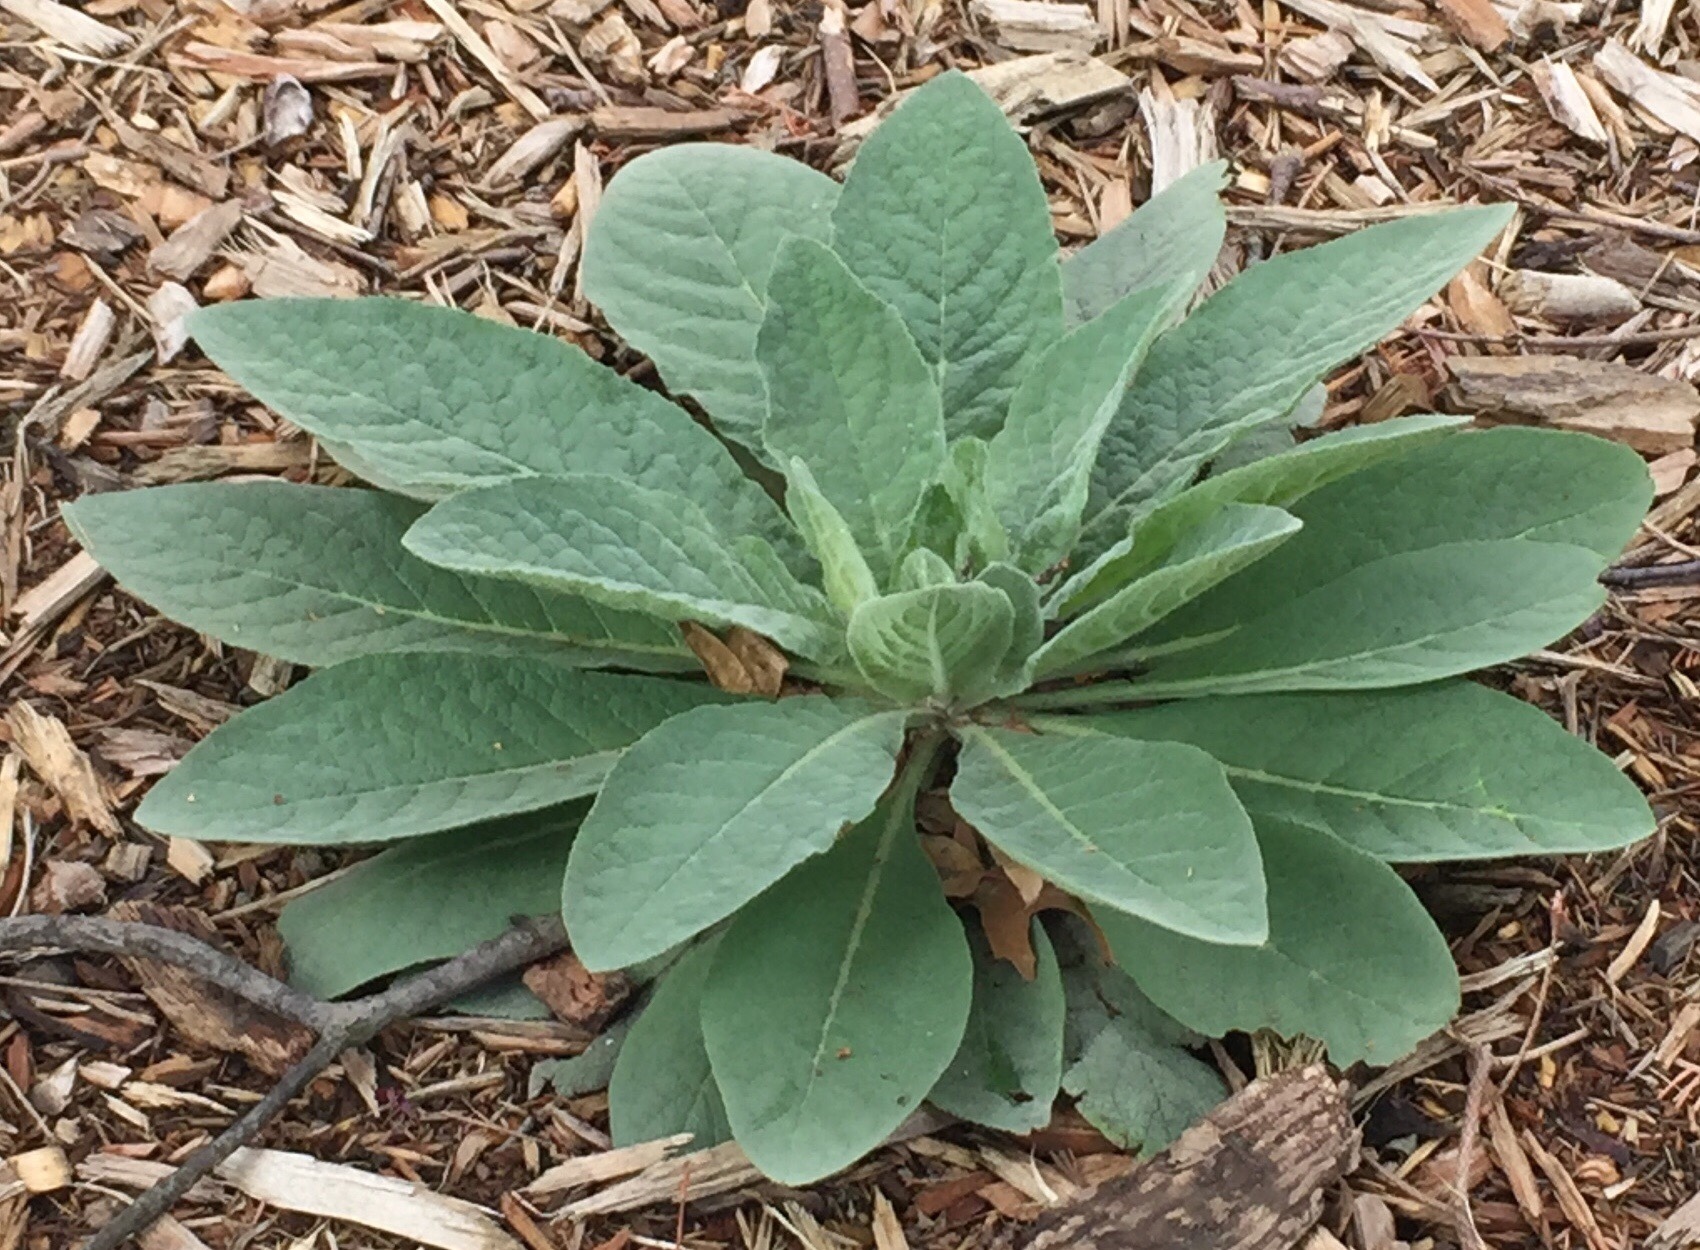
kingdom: Plantae
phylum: Tracheophyta
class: Magnoliopsida
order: Lamiales
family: Scrophulariaceae
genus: Verbascum
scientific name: Verbascum thapsus
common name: Common mullein
